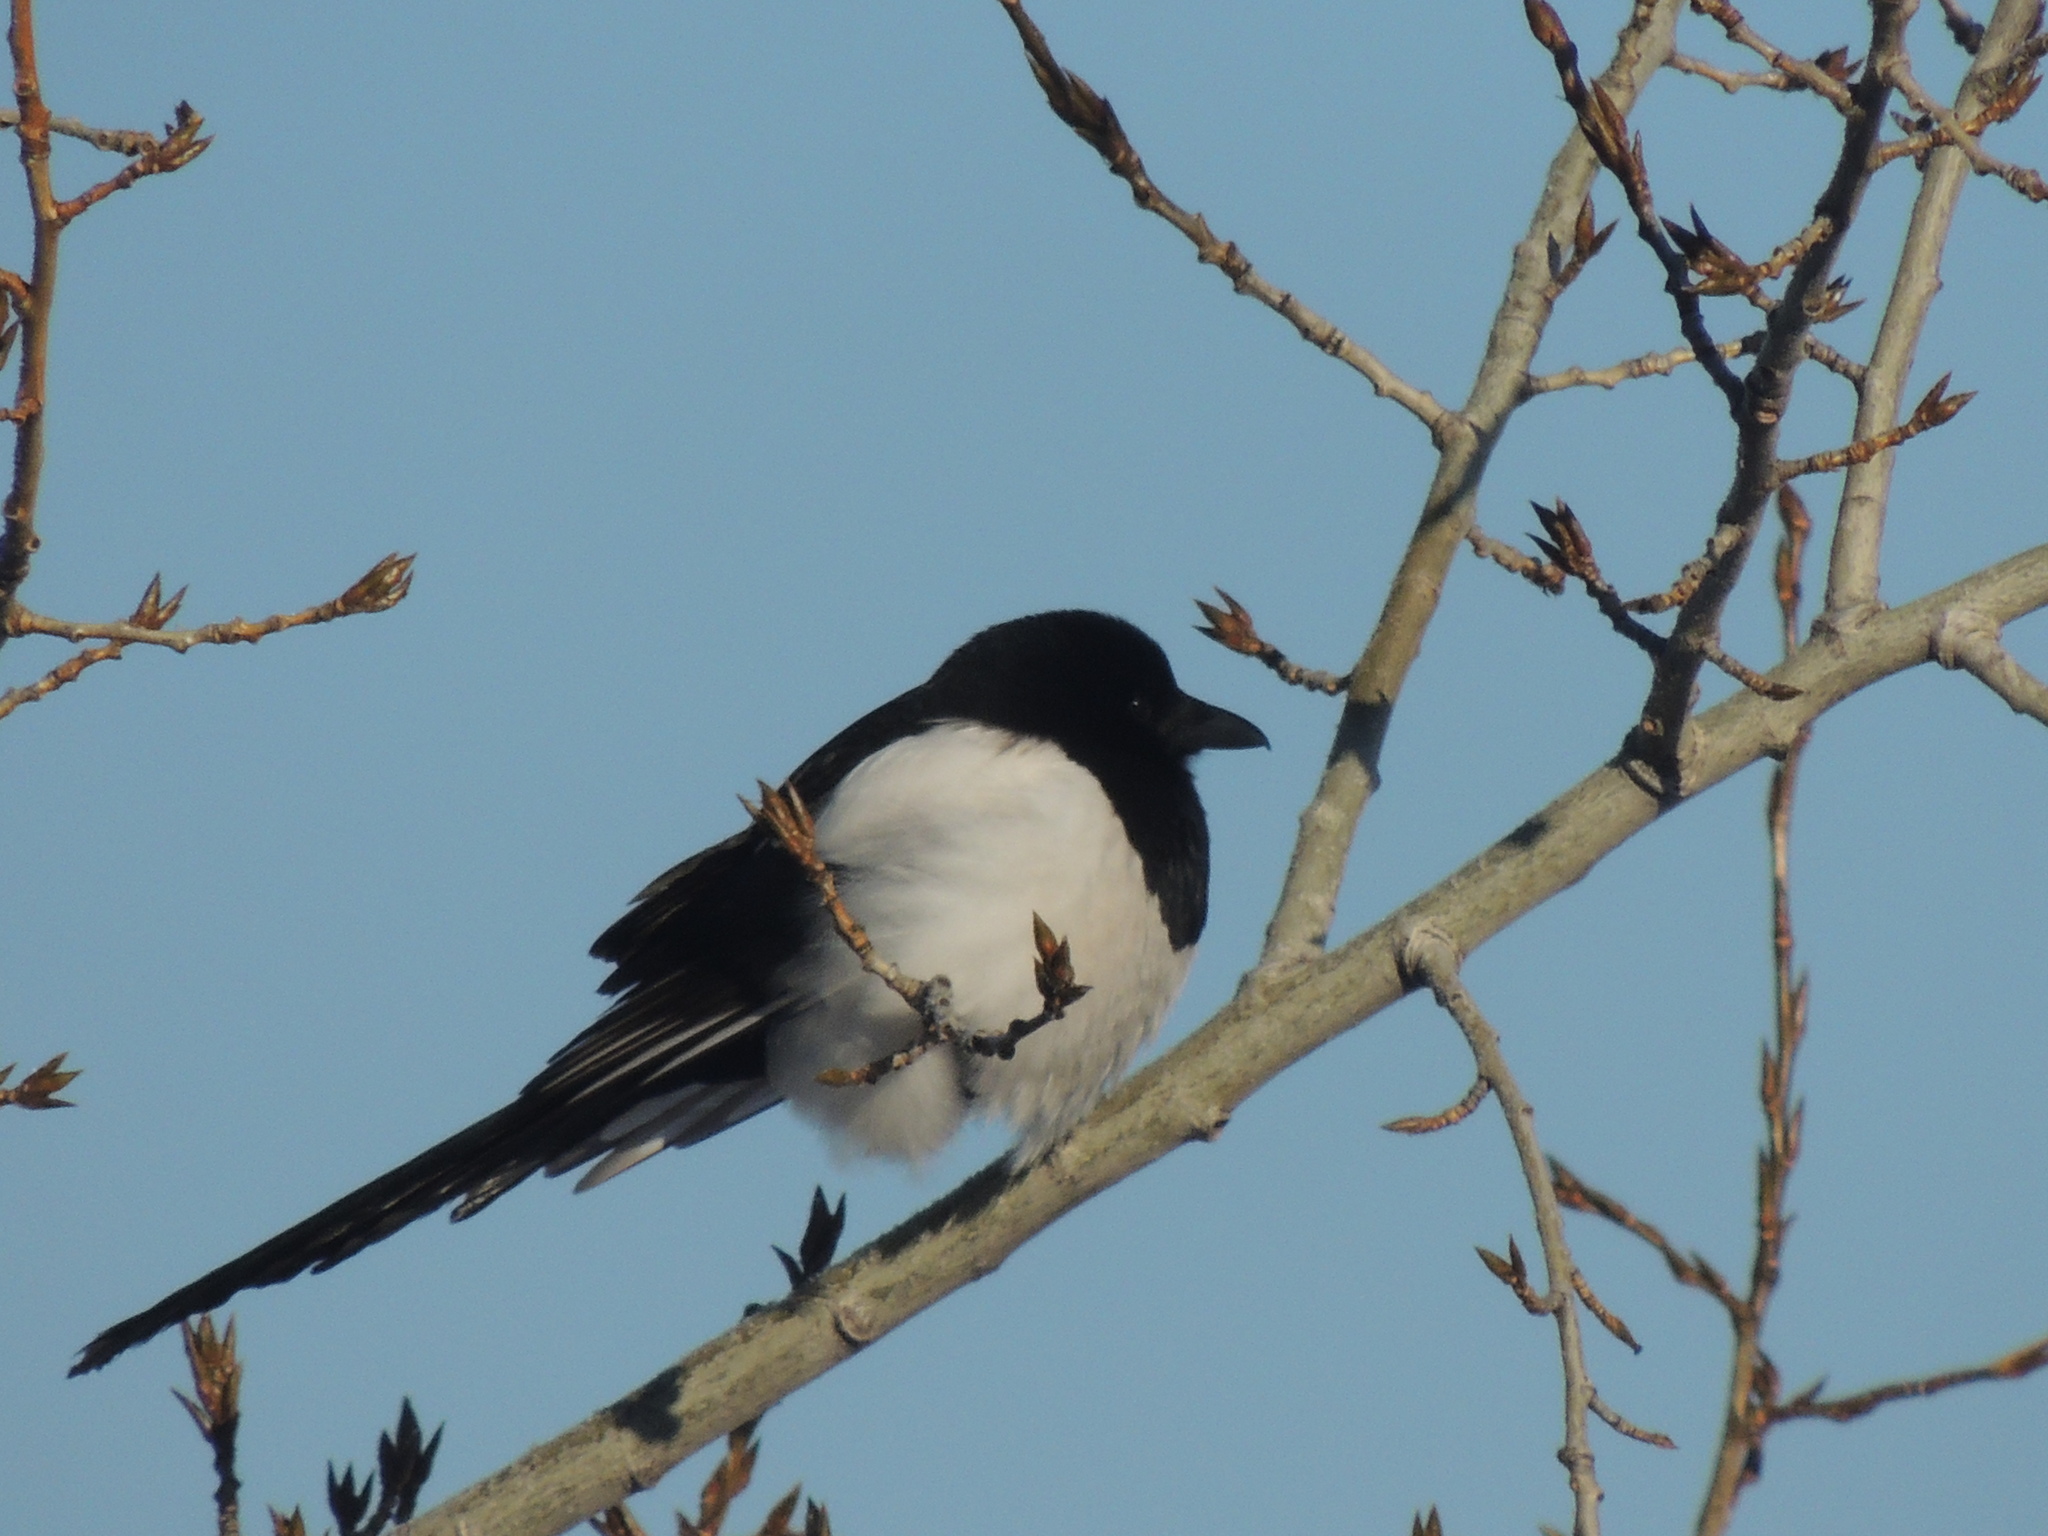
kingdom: Animalia
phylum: Chordata
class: Aves
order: Passeriformes
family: Corvidae
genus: Pica
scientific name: Pica pica
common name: Eurasian magpie
